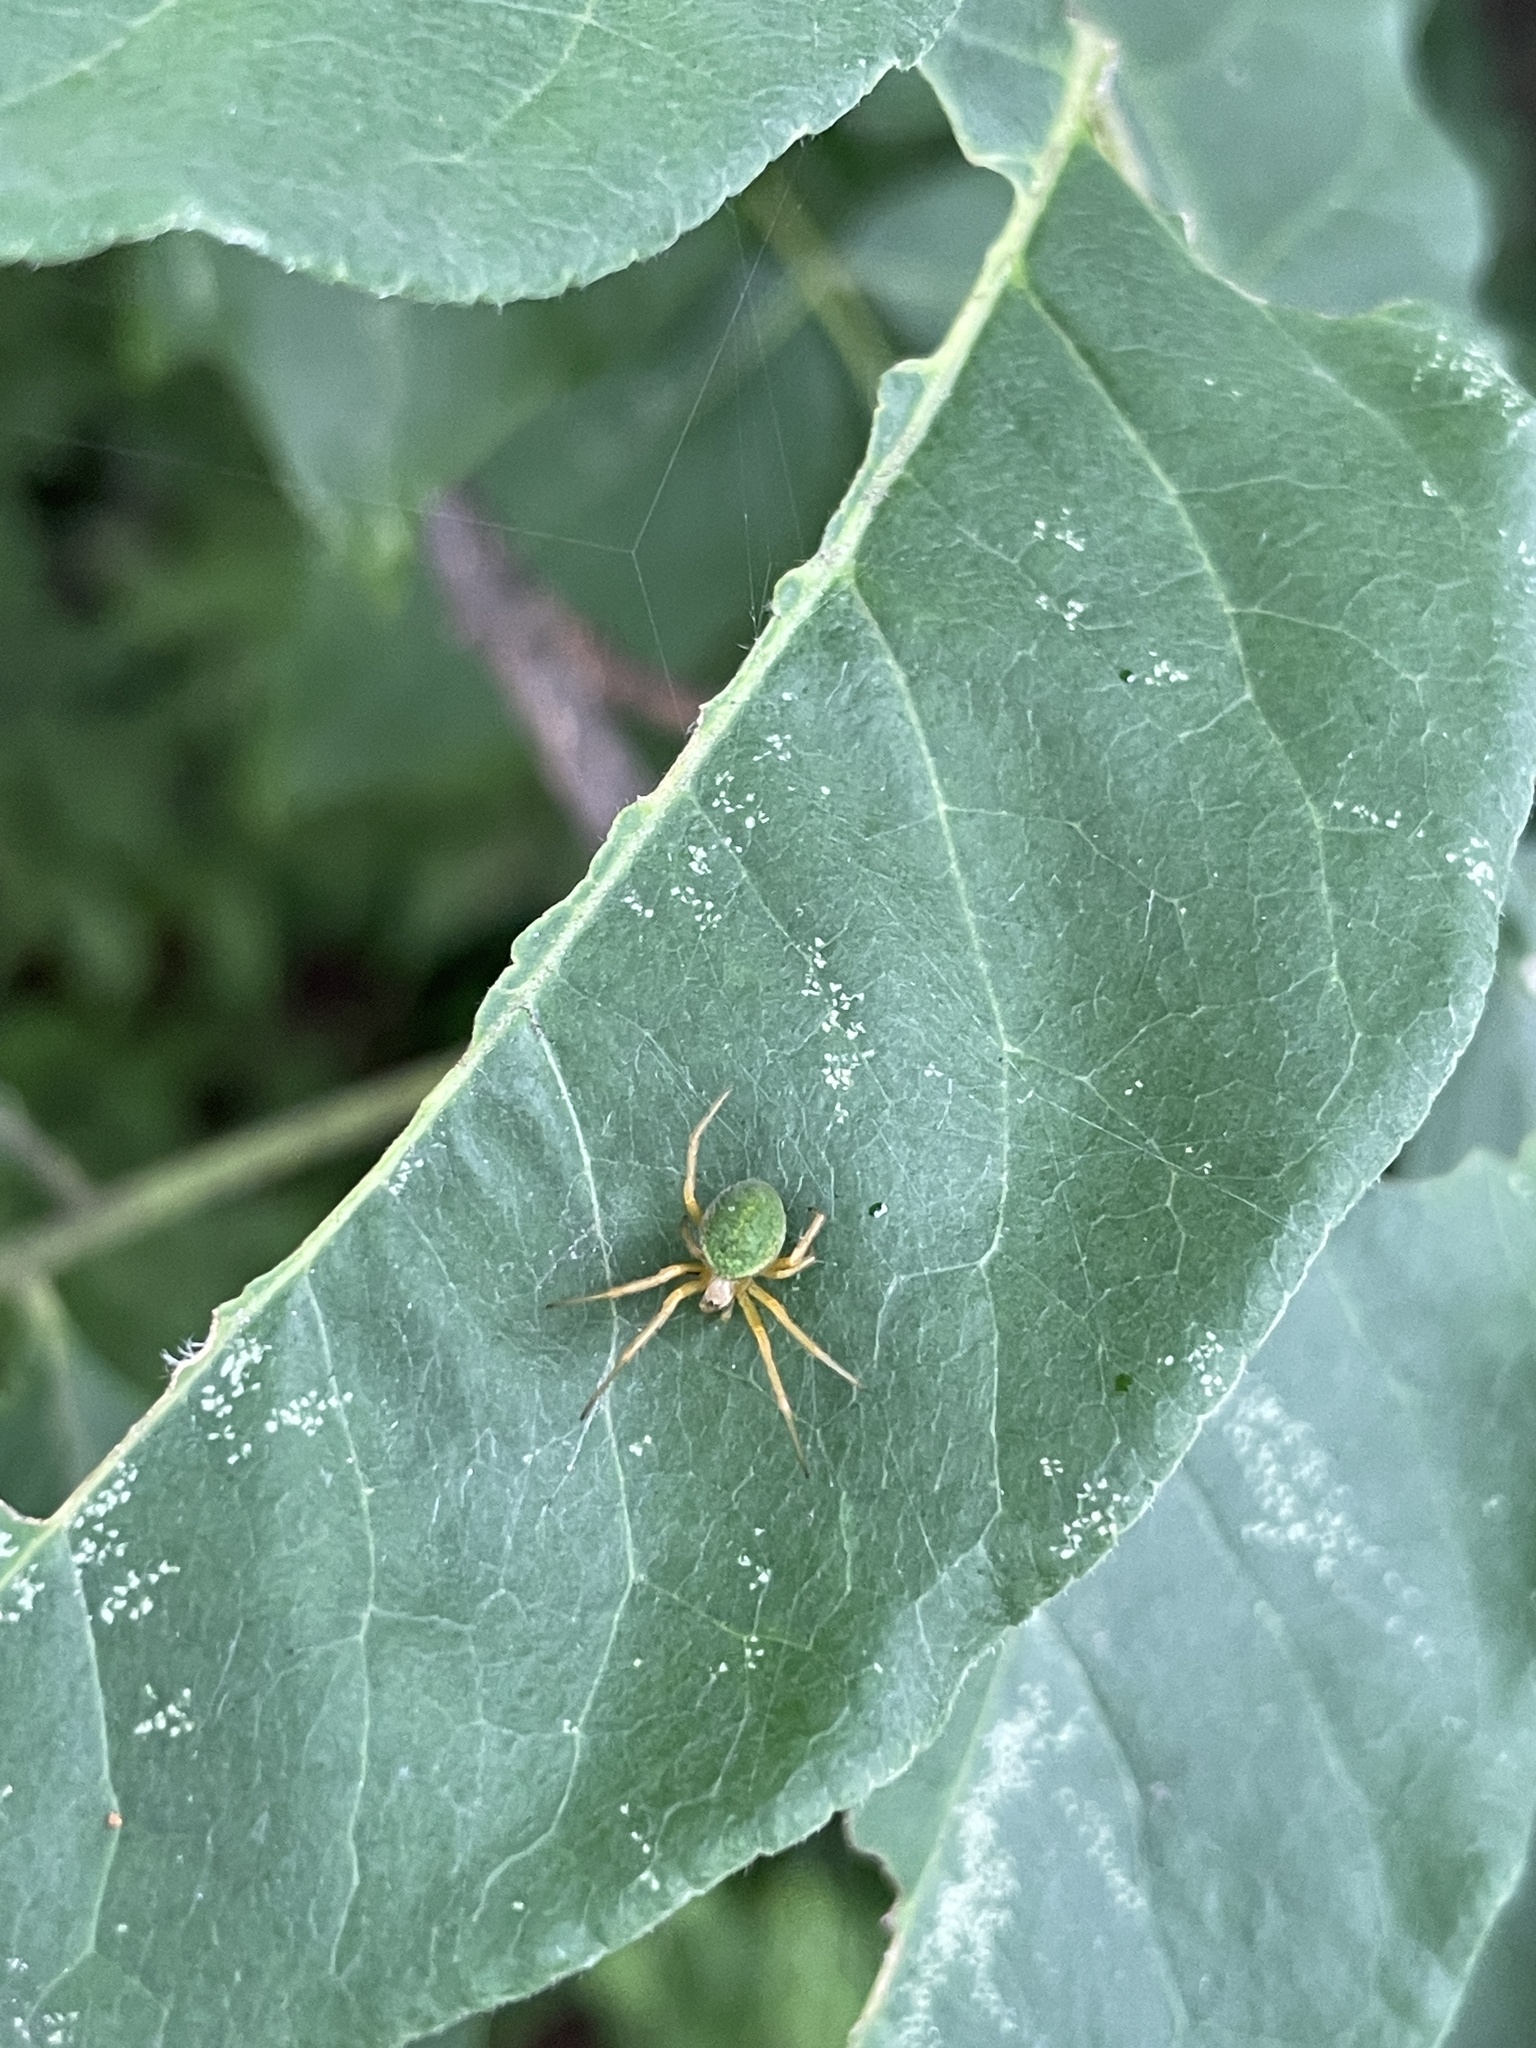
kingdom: Animalia
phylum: Arthropoda
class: Arachnida
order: Araneae
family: Araneidae
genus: Neoscona
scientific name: Neoscona scylloides
